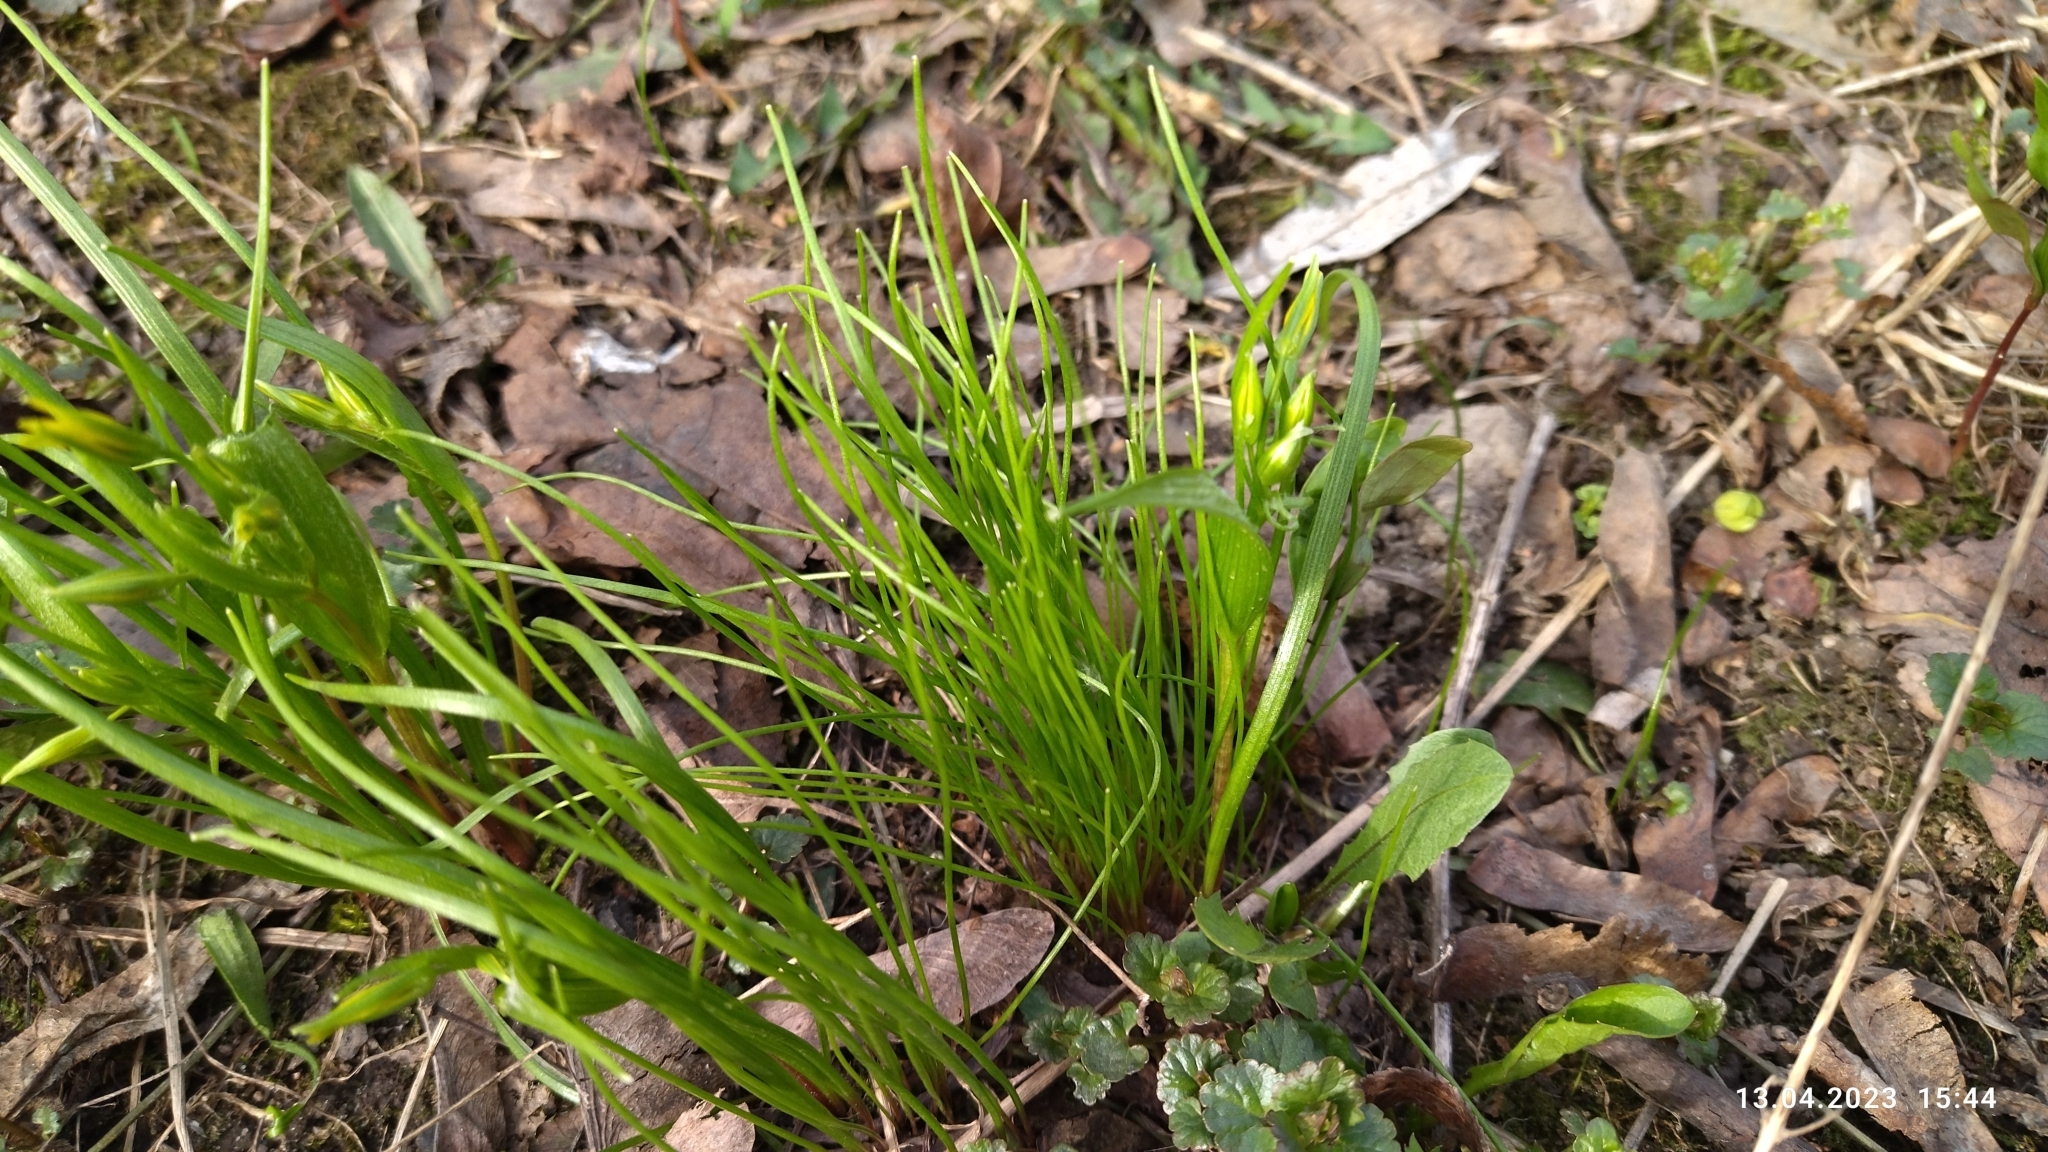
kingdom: Plantae
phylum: Tracheophyta
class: Liliopsida
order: Liliales
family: Liliaceae
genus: Gagea
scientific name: Gagea minima
